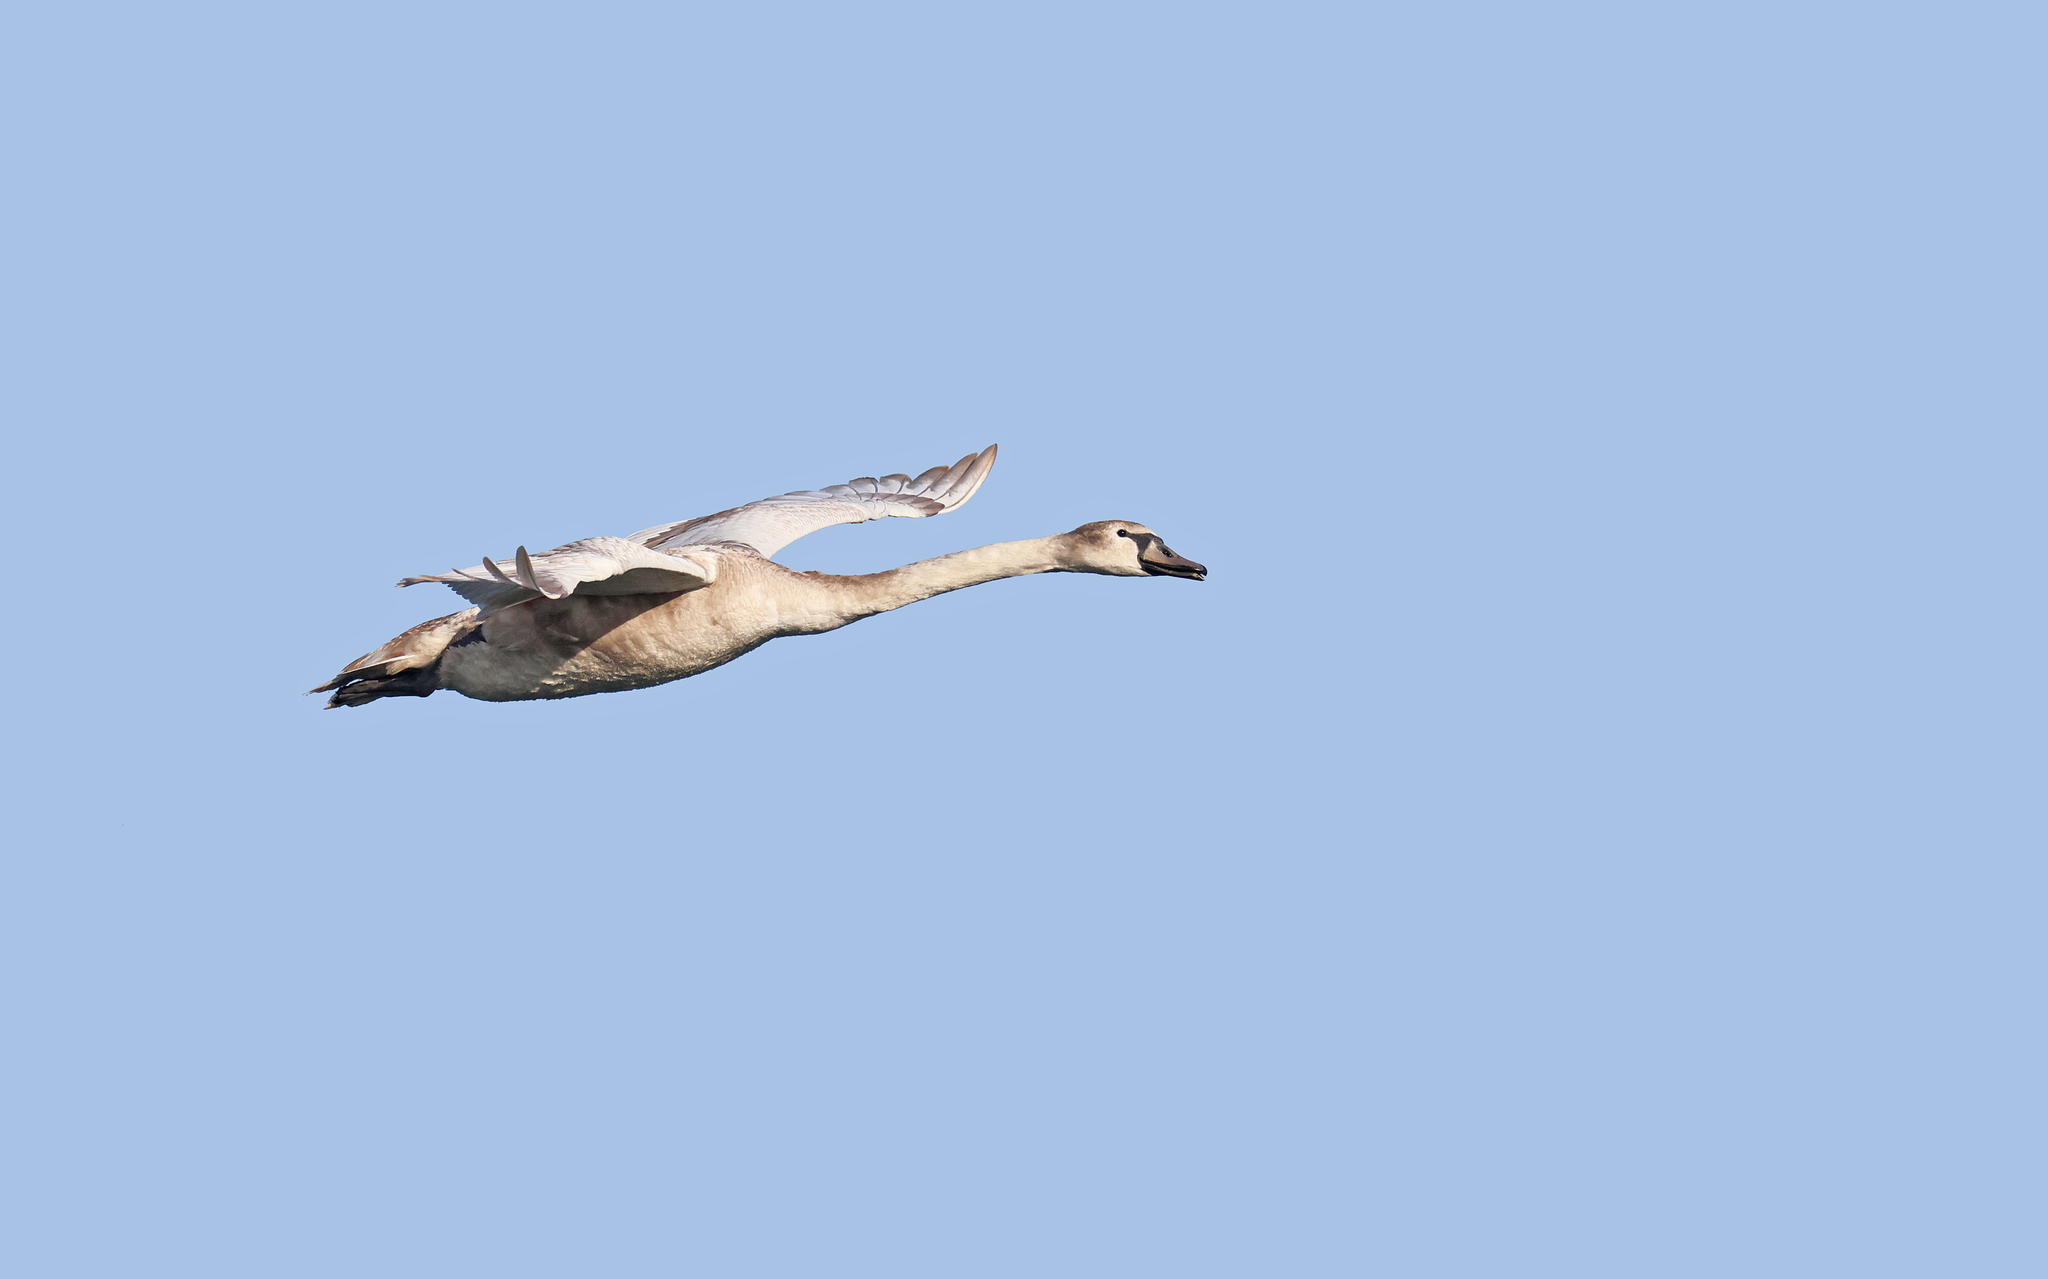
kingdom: Animalia
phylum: Chordata
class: Aves
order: Anseriformes
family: Anatidae
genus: Cygnus
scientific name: Cygnus olor
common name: Mute swan
